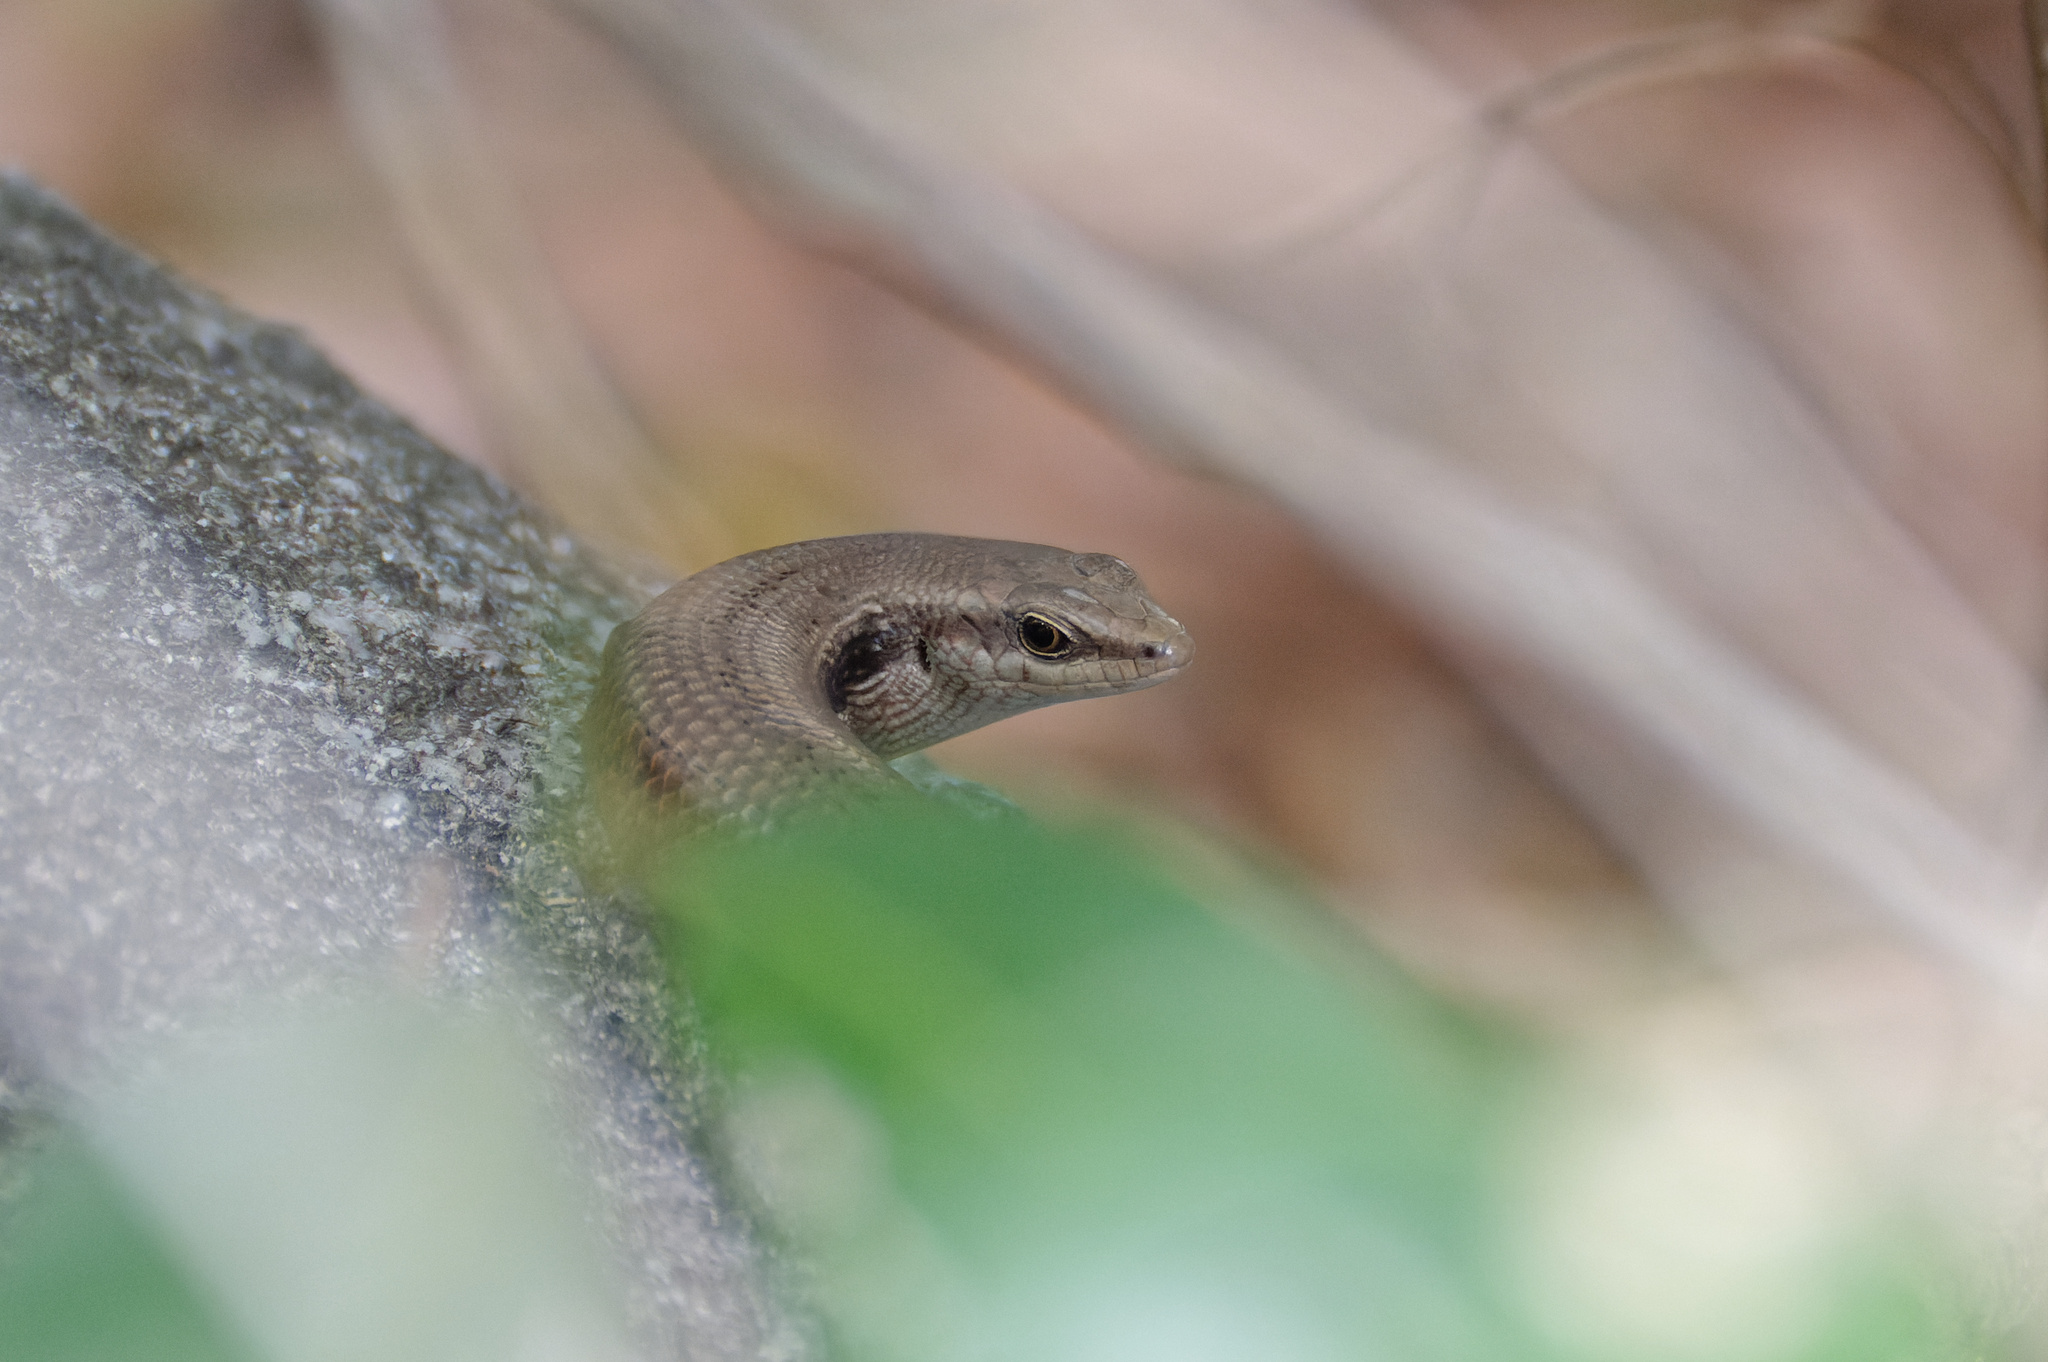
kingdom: Animalia
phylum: Chordata
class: Squamata
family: Scincidae
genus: Carlia
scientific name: Carlia longipes
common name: Closed-litter rainbow-skink
